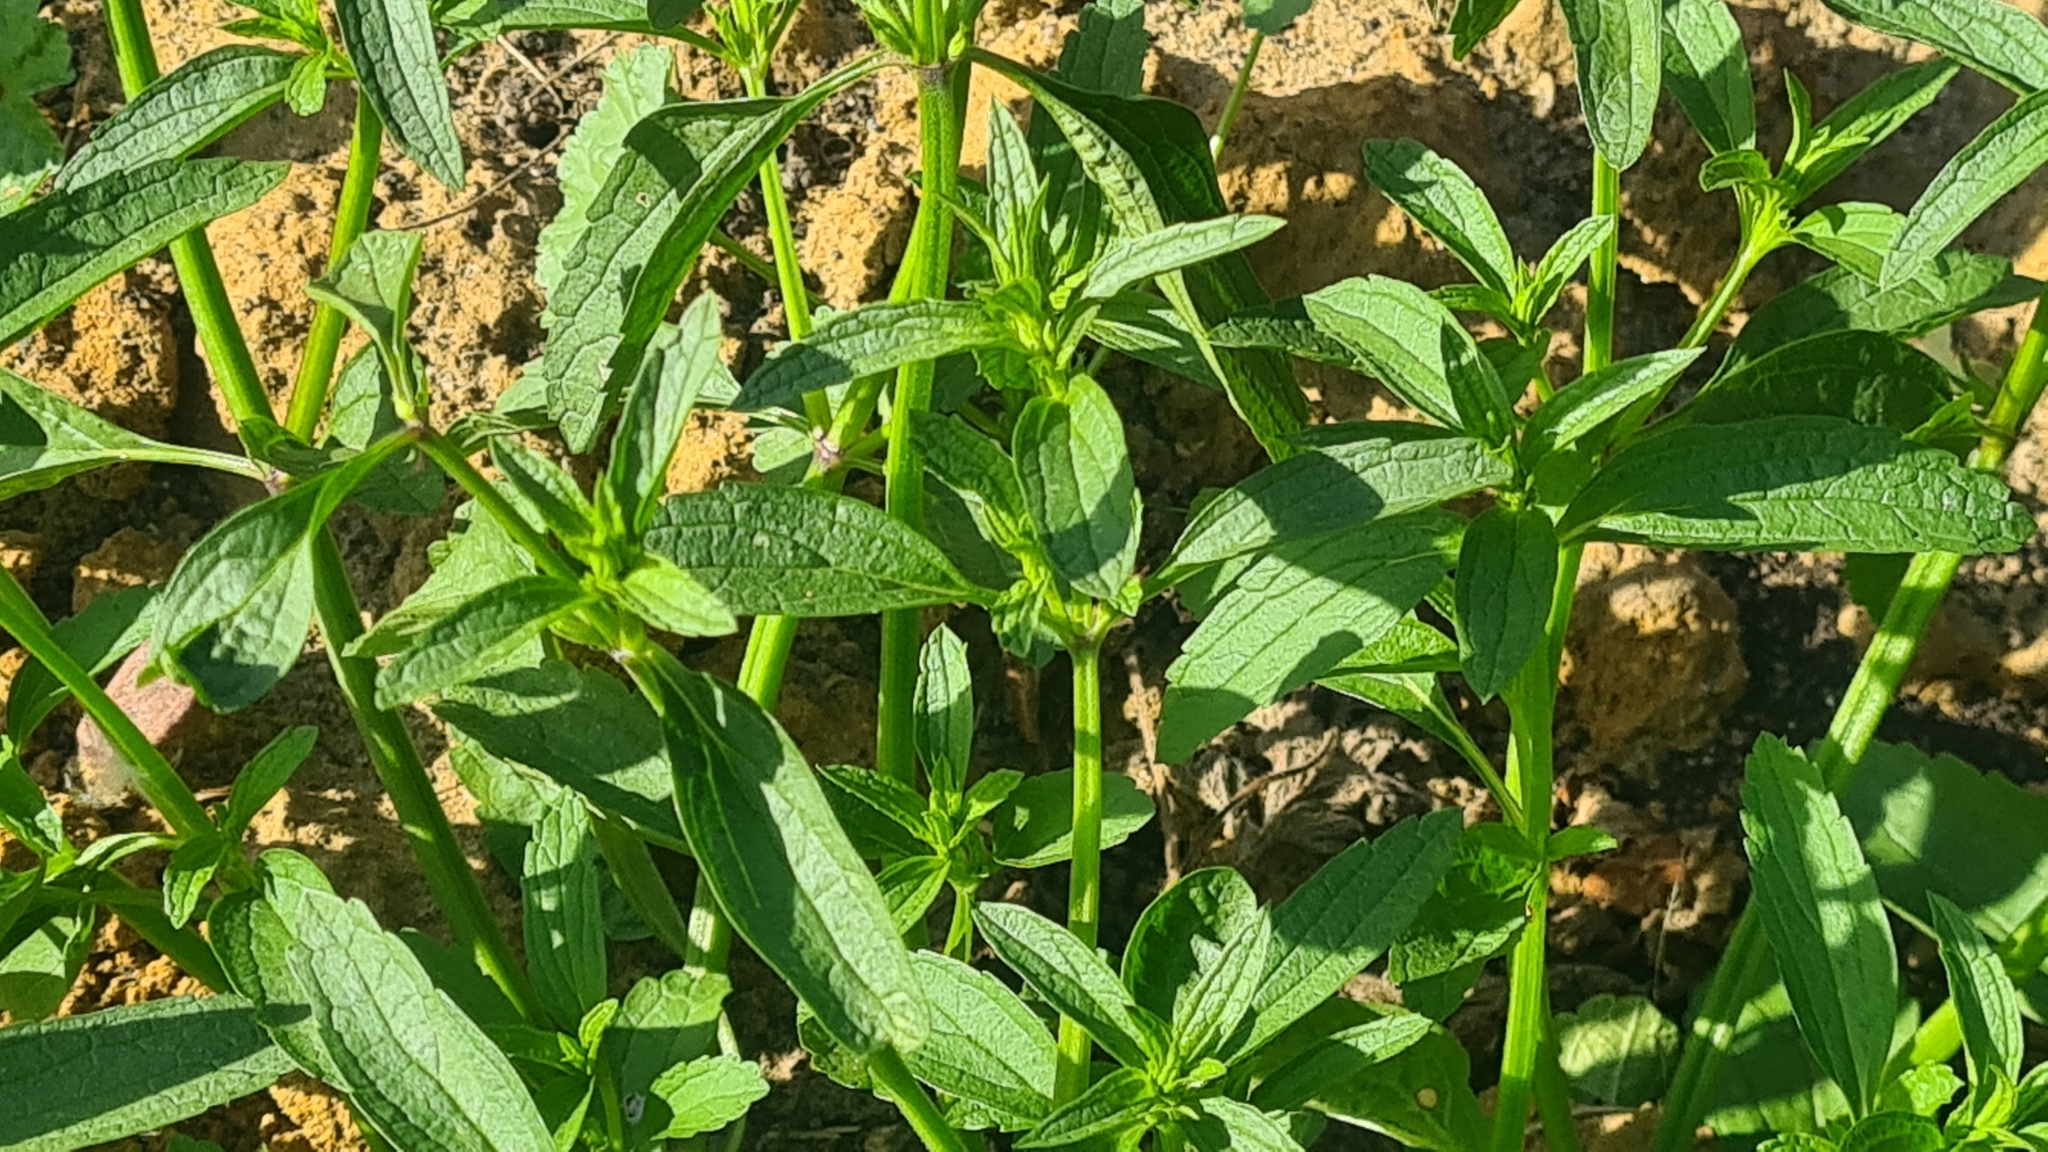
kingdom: Plantae
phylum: Tracheophyta
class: Magnoliopsida
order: Lamiales
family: Lamiaceae
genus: Stachys
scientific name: Stachys annua
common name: Annual yellow-woundwort
